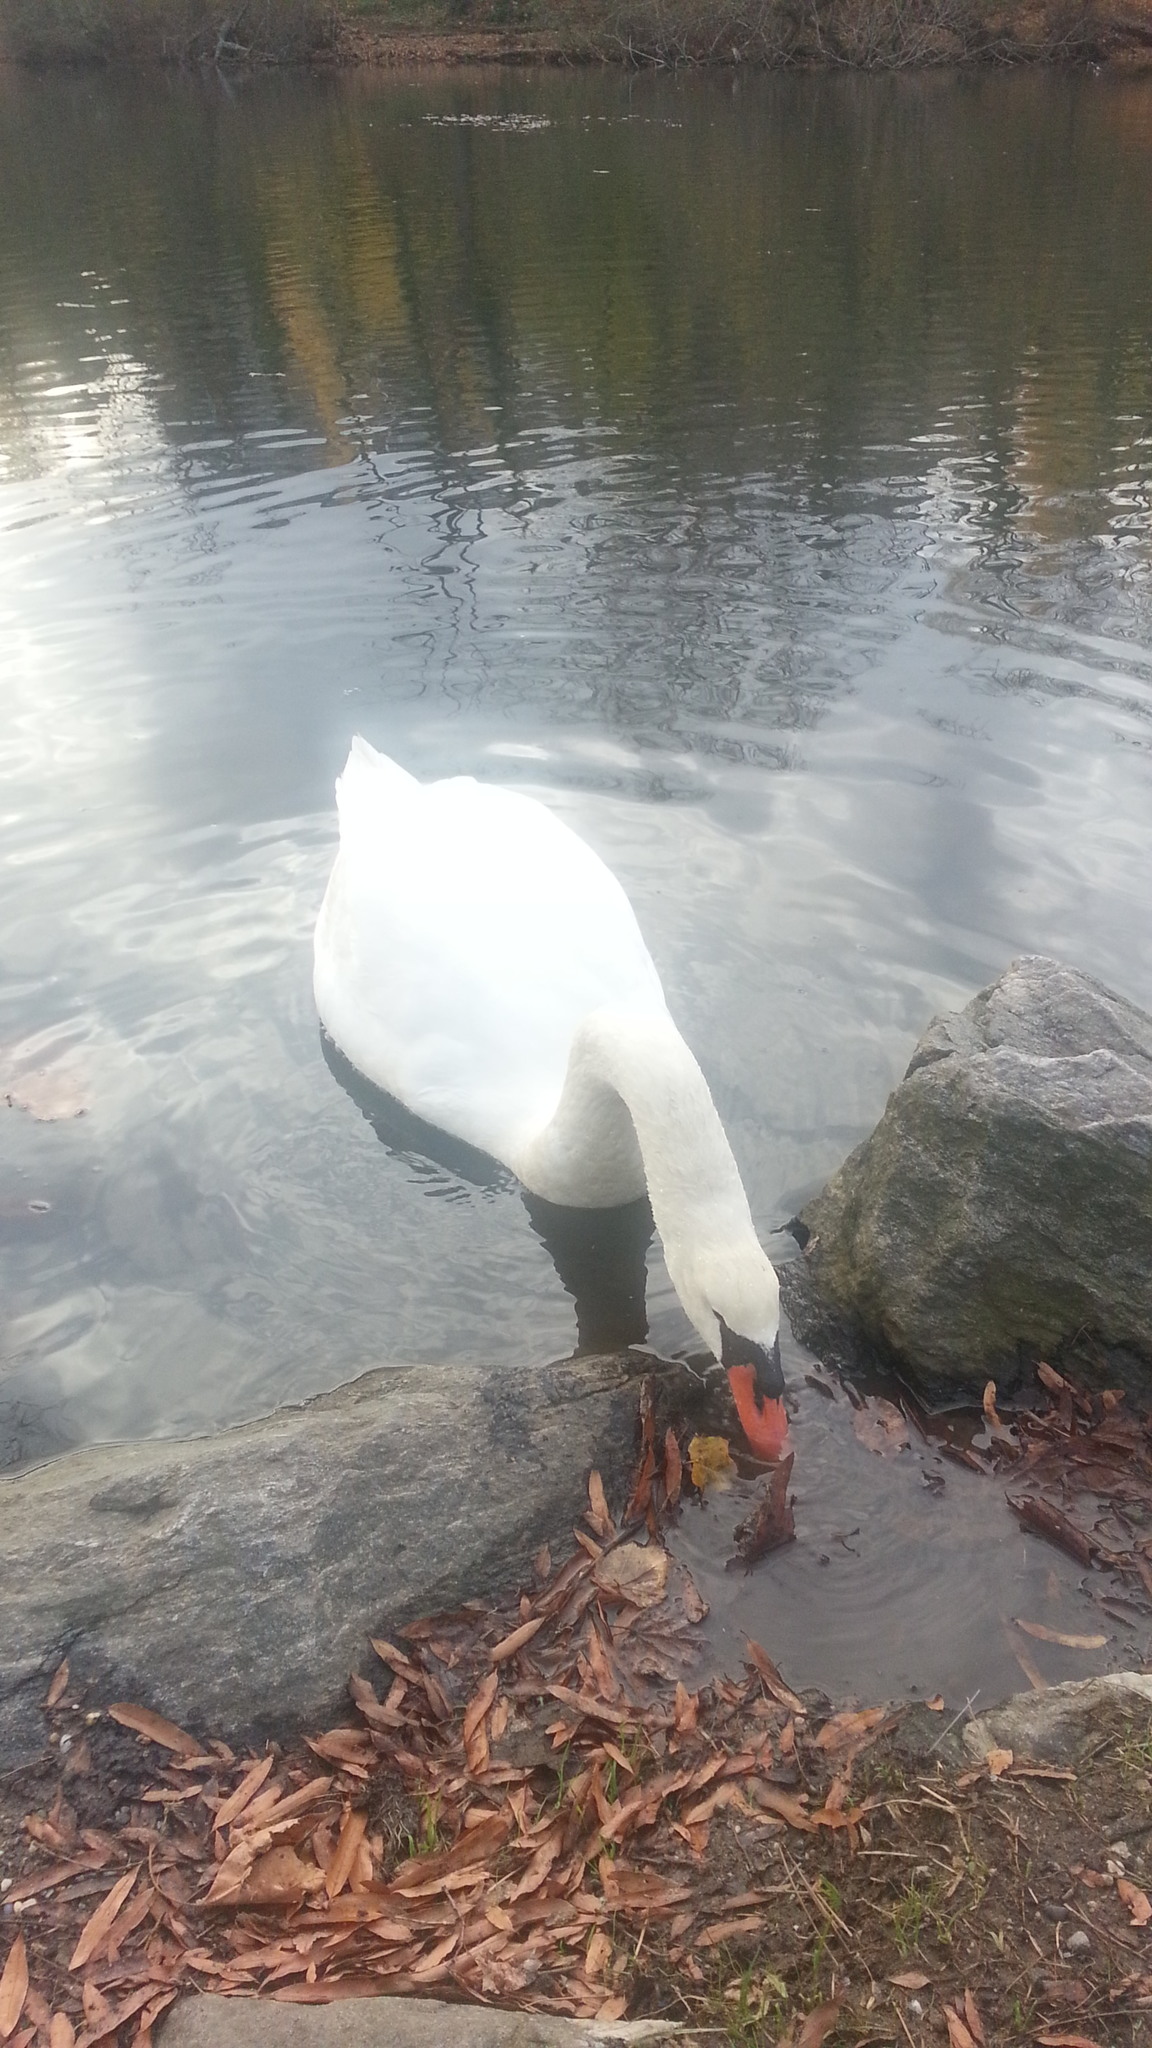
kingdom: Animalia
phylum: Chordata
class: Aves
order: Anseriformes
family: Anatidae
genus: Cygnus
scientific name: Cygnus olor
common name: Mute swan
